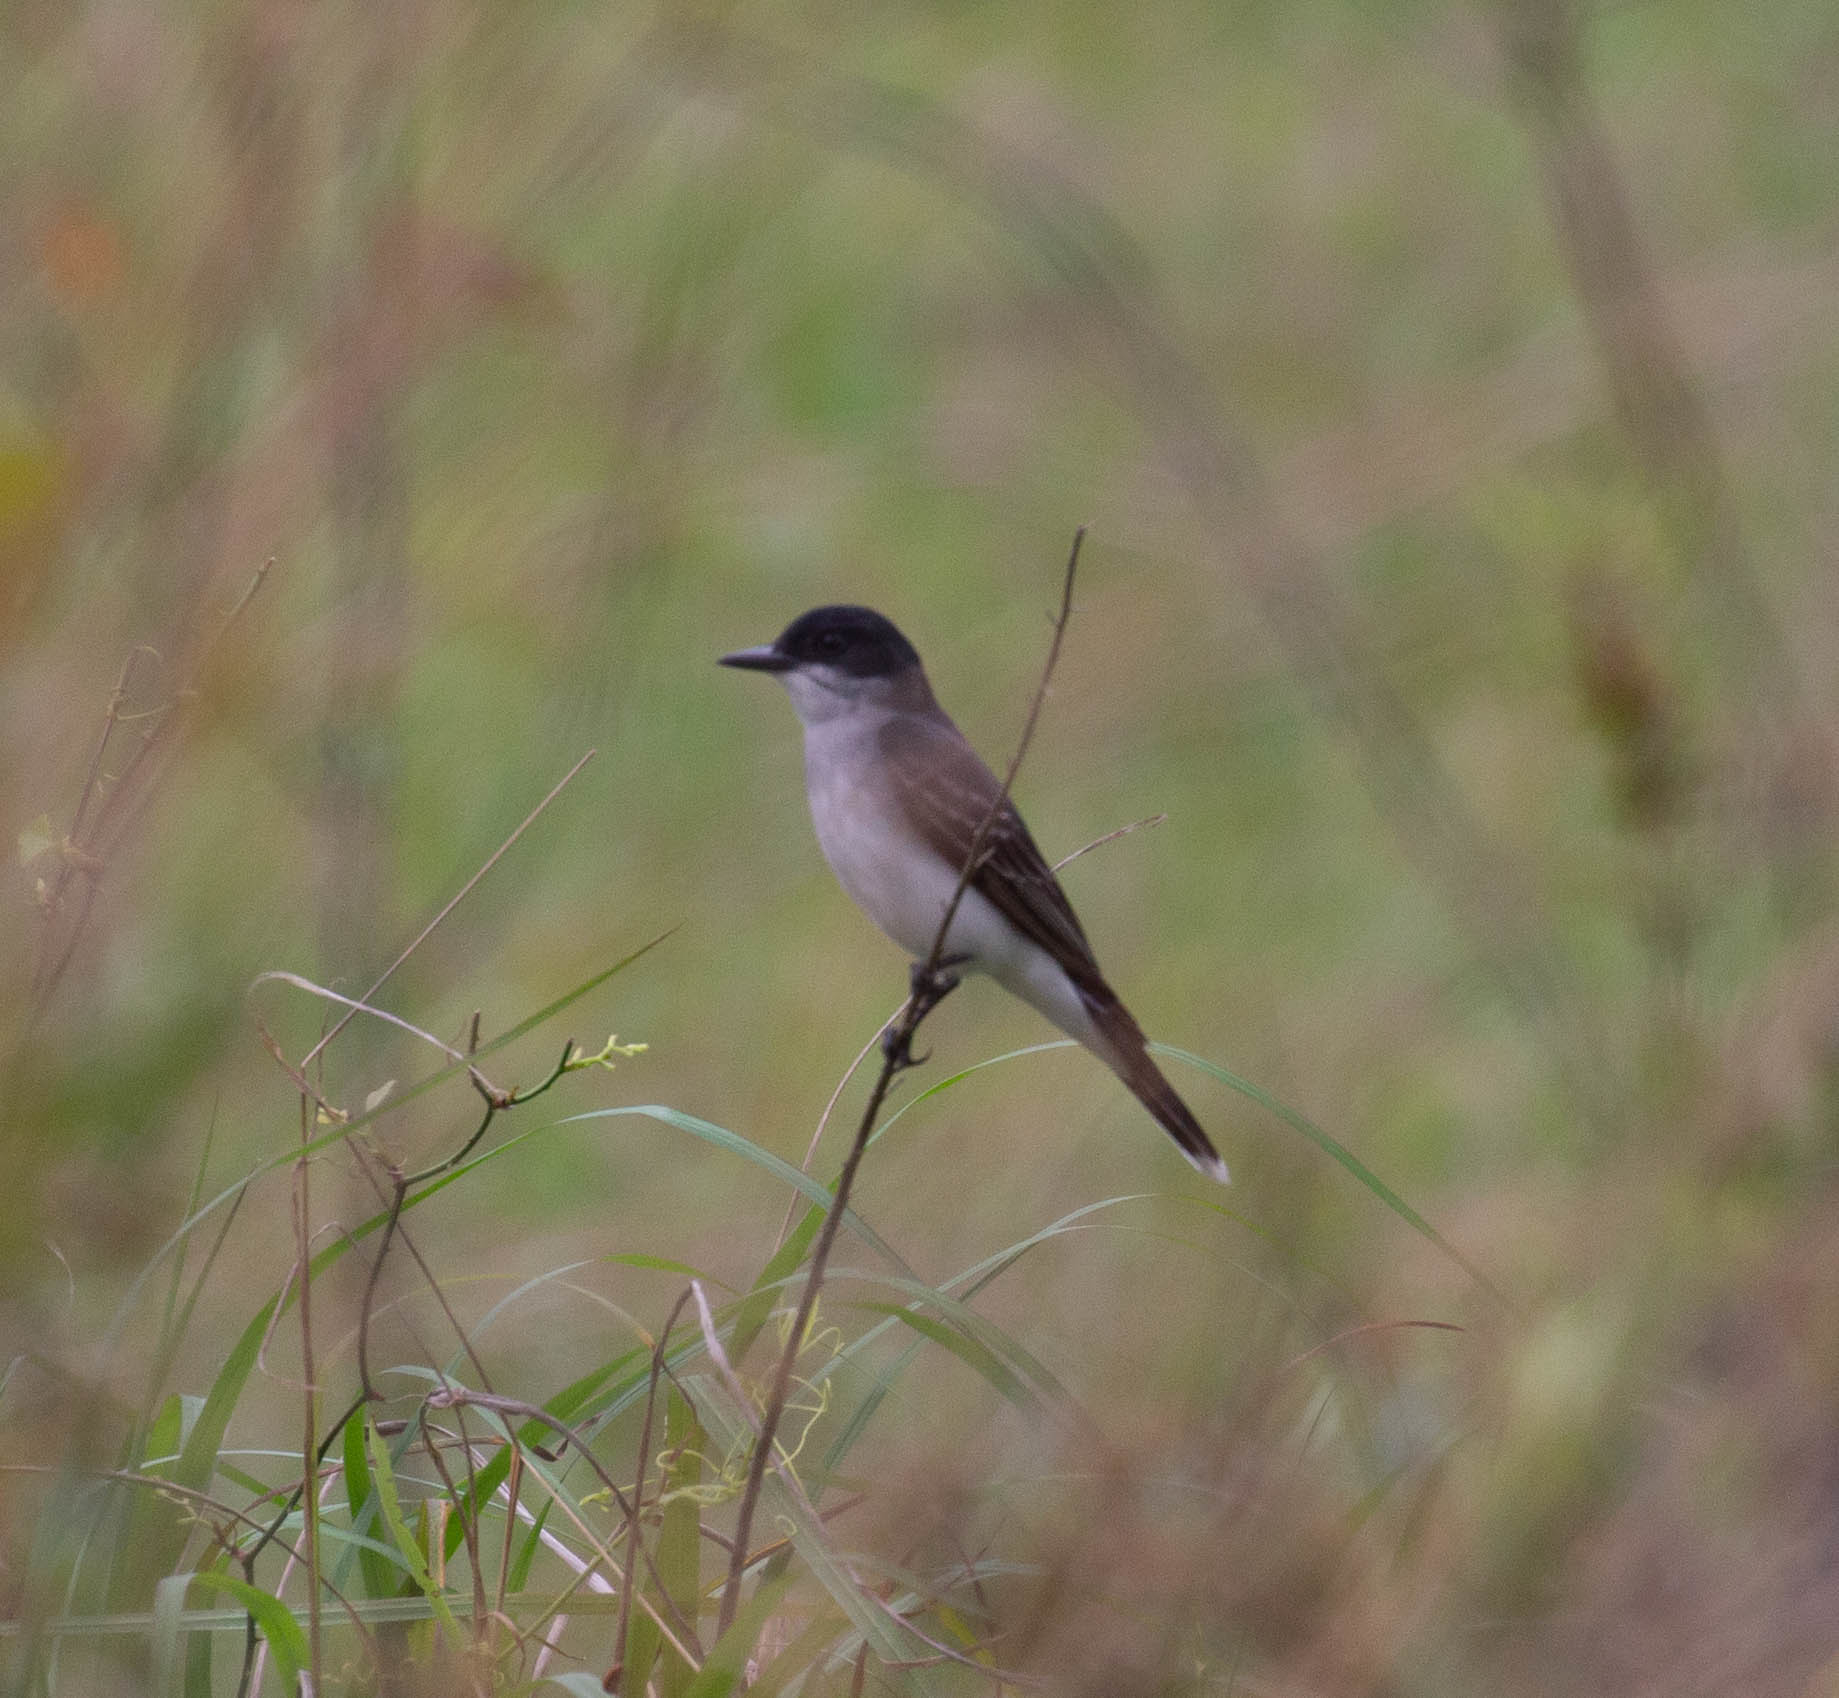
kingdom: Animalia
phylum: Chordata
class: Aves
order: Passeriformes
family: Tyrannidae
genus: Tyrannus
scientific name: Tyrannus tyrannus
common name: Eastern kingbird
